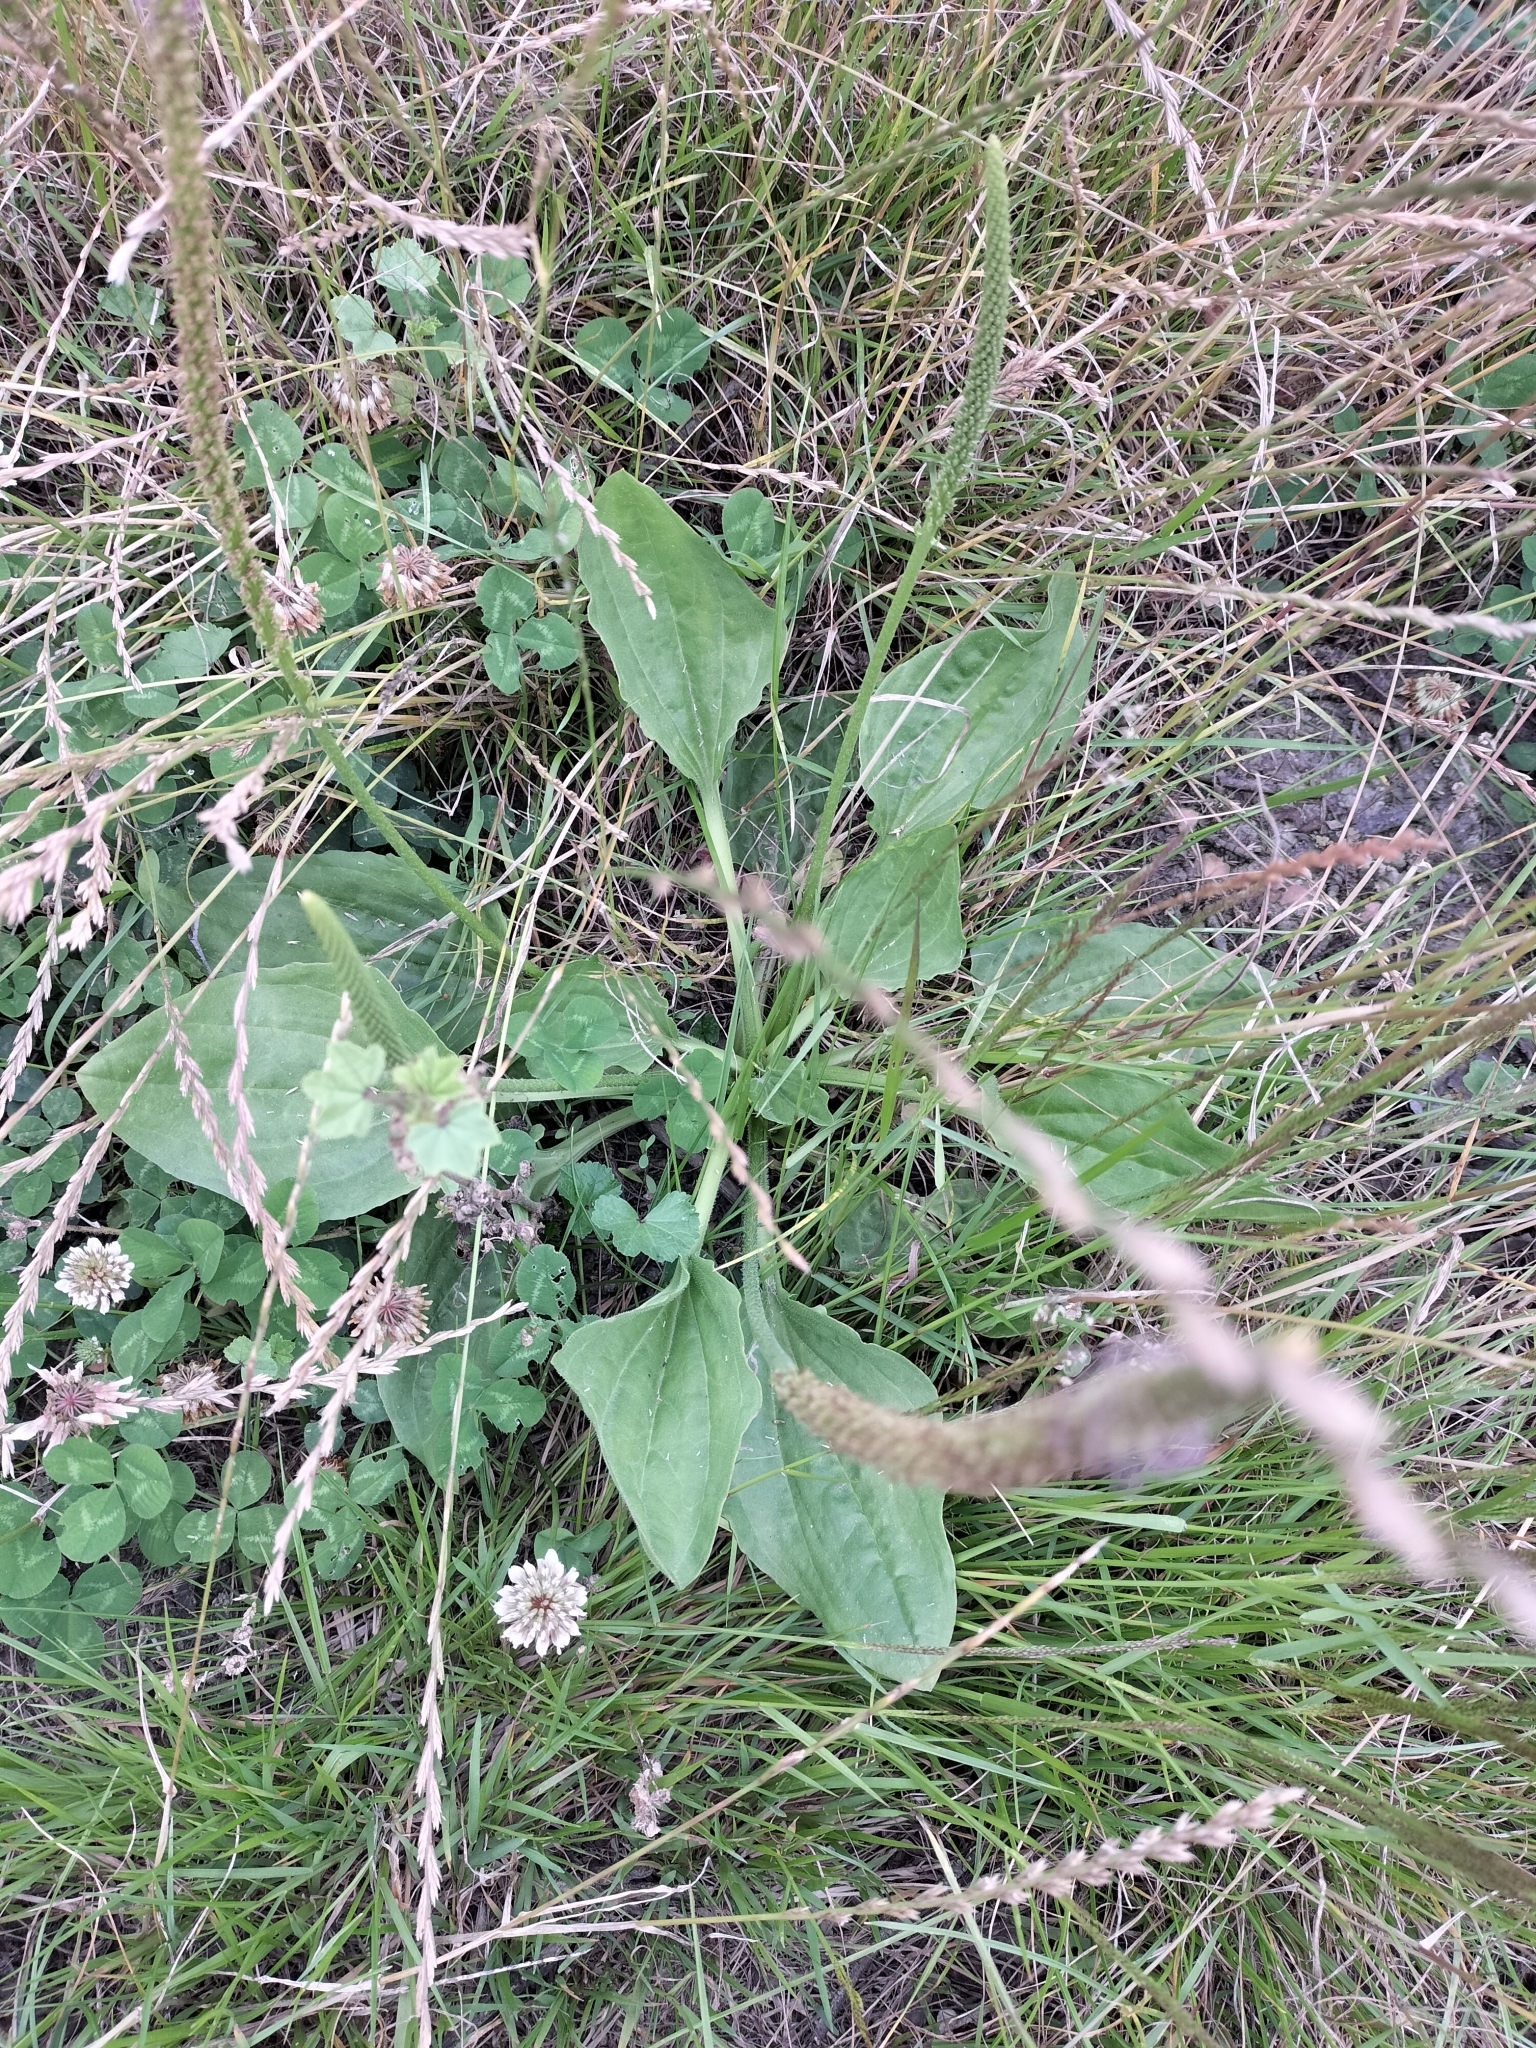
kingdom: Plantae
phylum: Tracheophyta
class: Magnoliopsida
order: Lamiales
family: Plantaginaceae
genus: Plantago
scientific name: Plantago major
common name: Common plantain
